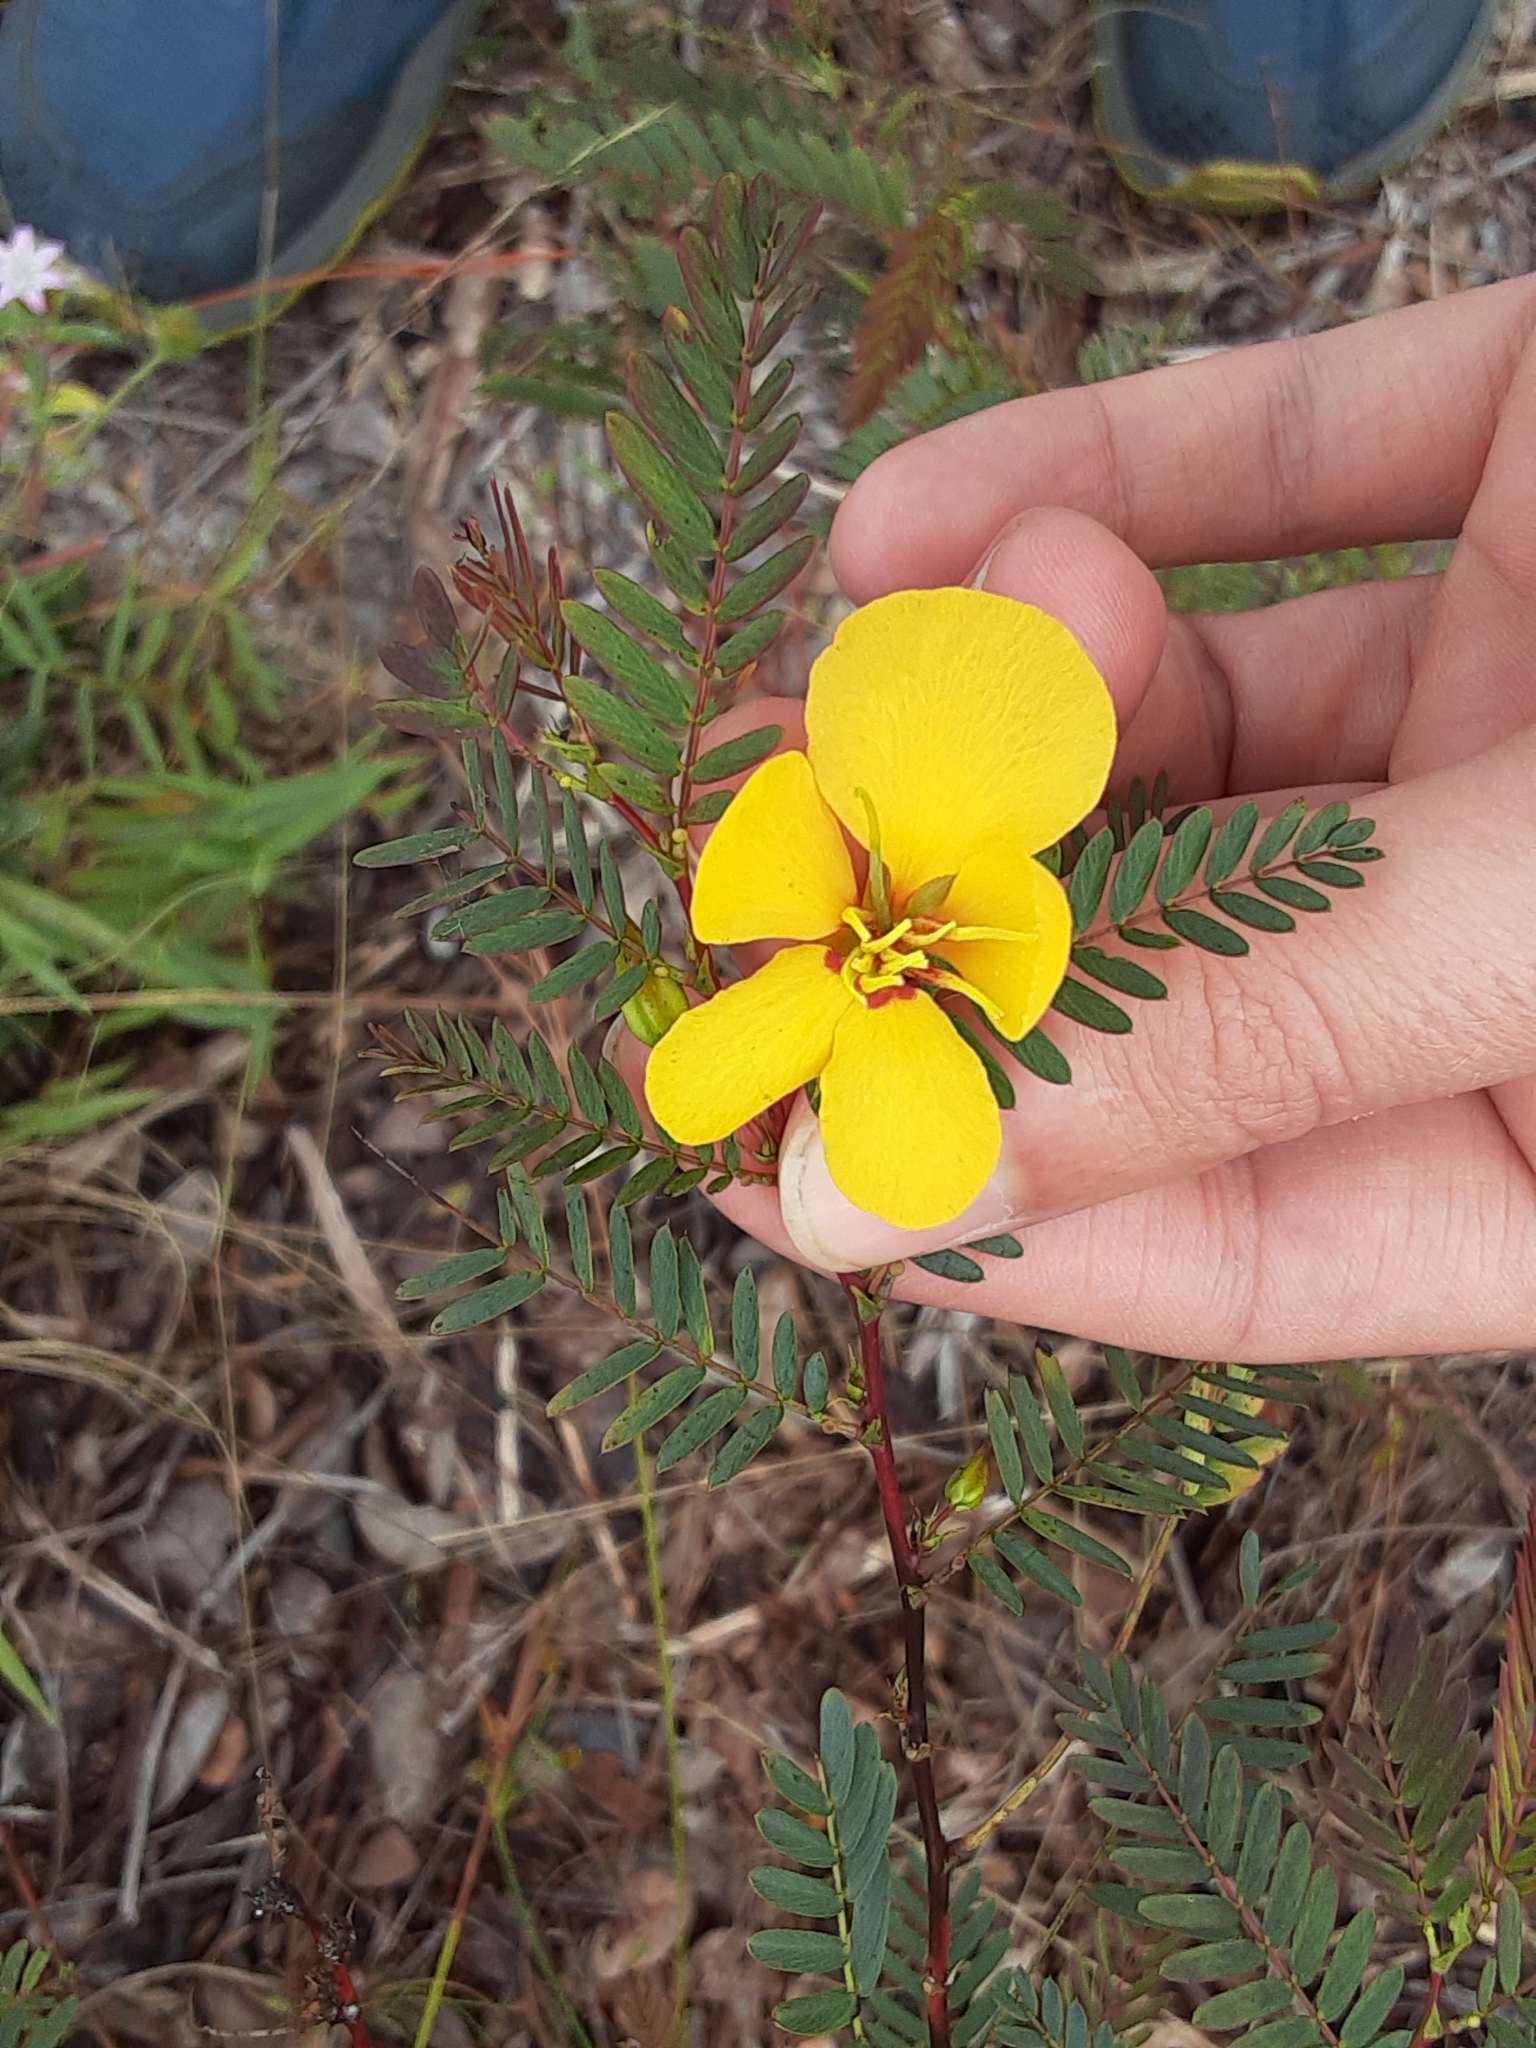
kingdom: Plantae
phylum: Tracheophyta
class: Magnoliopsida
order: Fabales
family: Fabaceae
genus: Chamaecrista
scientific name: Chamaecrista fasciculata
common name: Golden cassia
